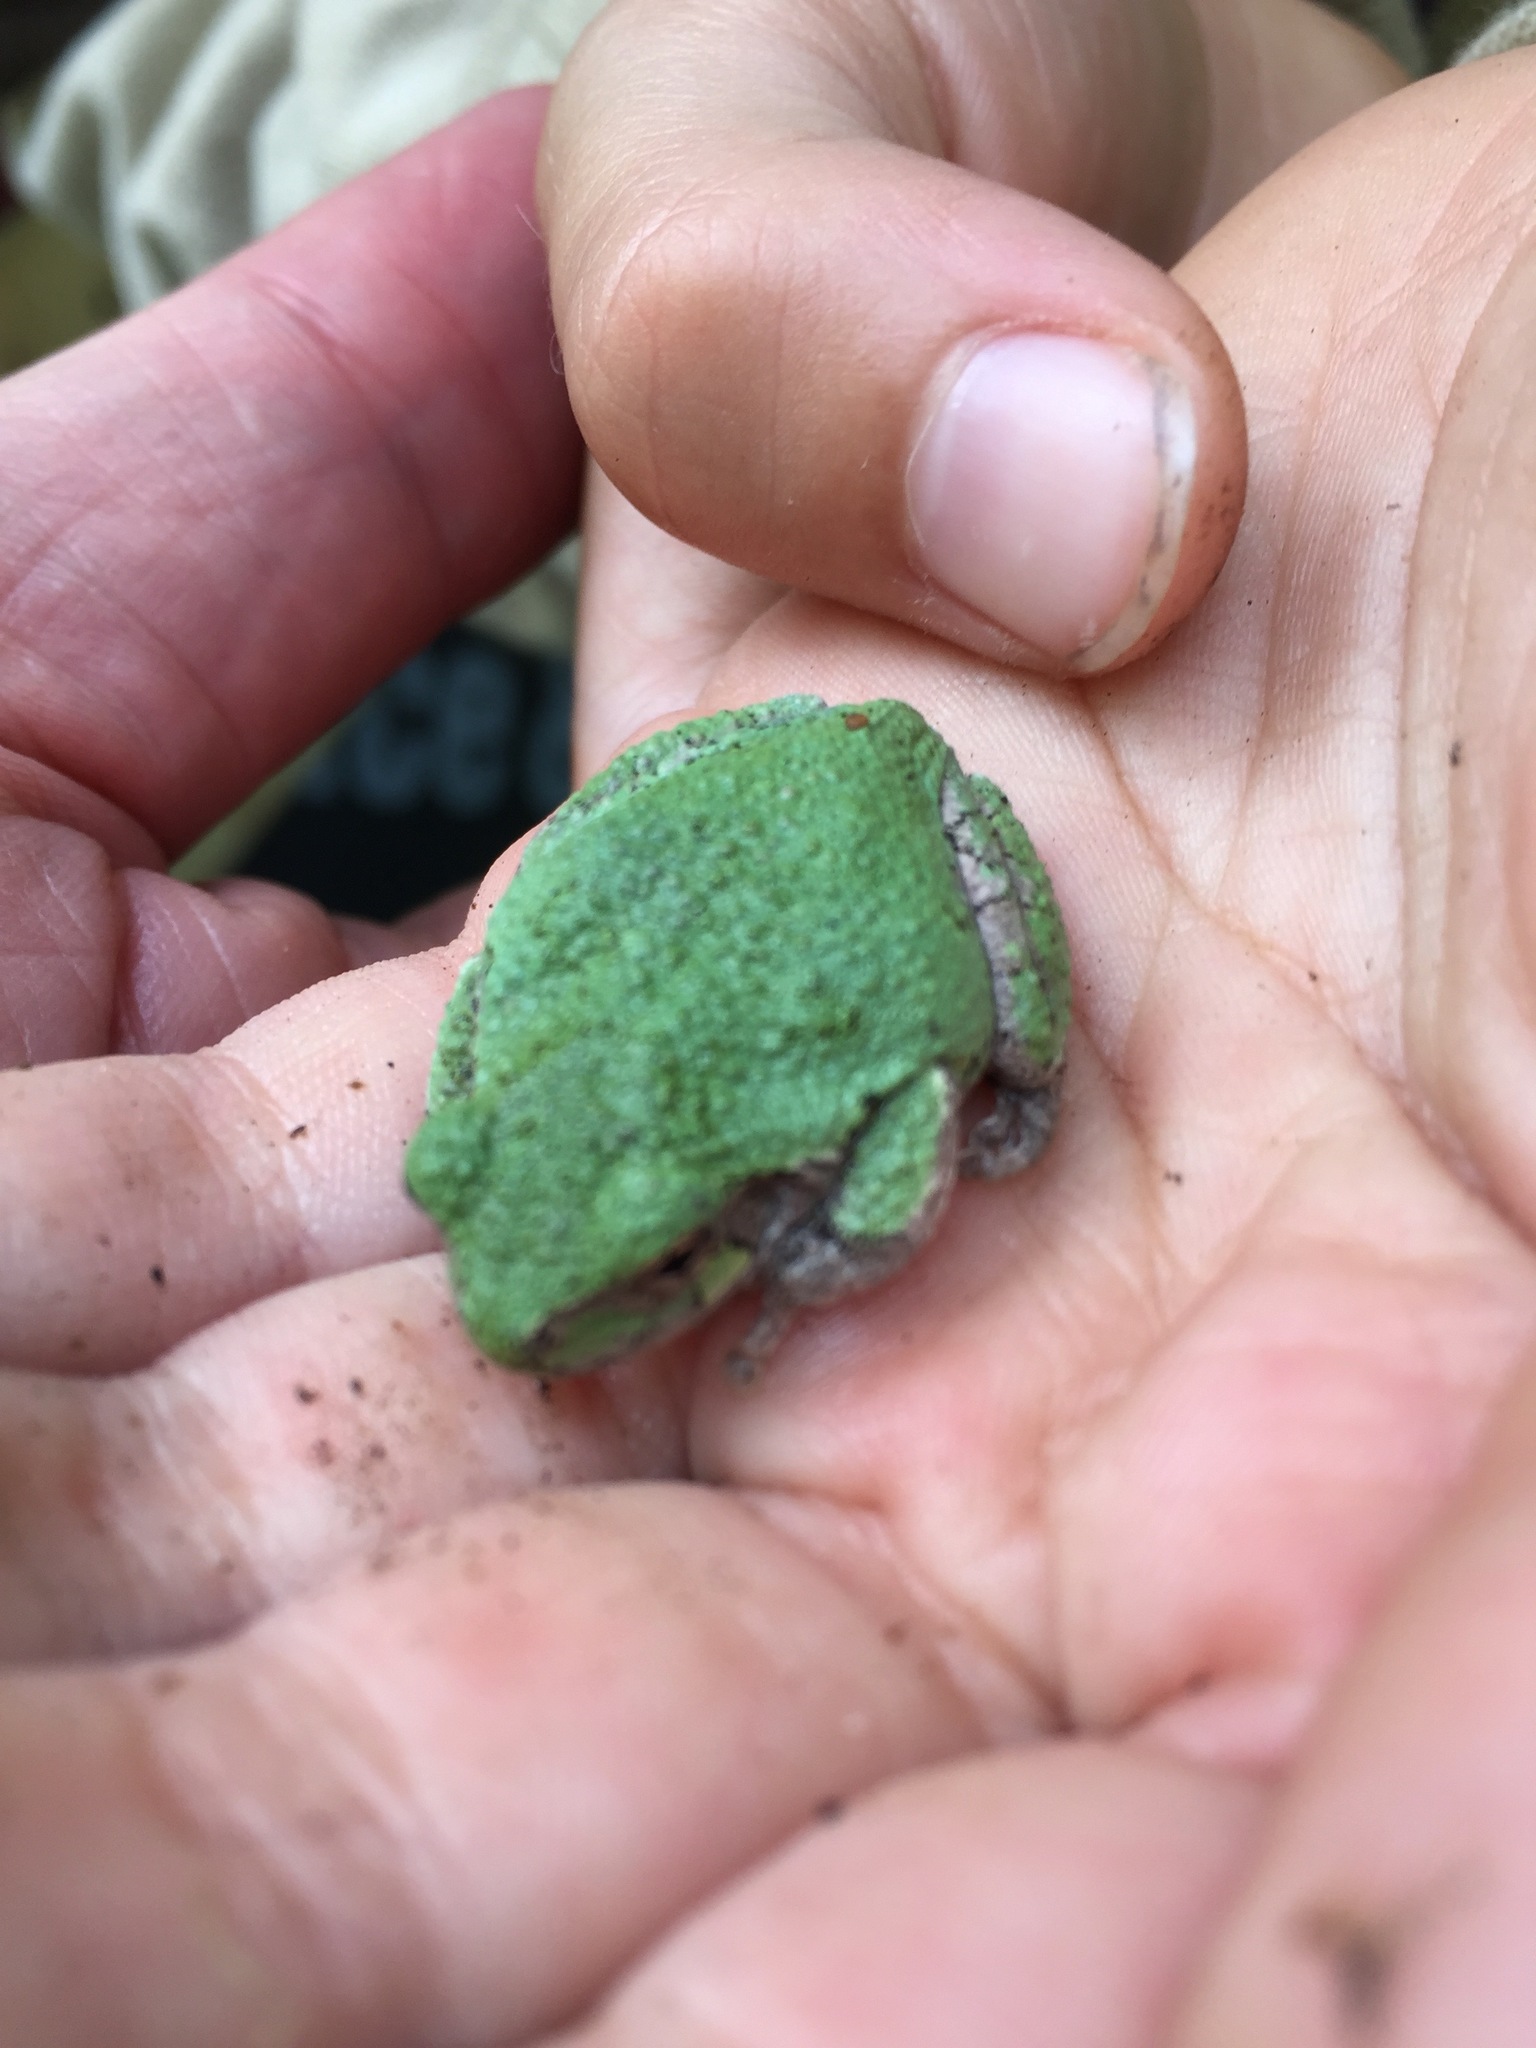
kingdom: Animalia
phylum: Chordata
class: Amphibia
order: Anura
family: Hylidae
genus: Dryophytes
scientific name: Dryophytes versicolor
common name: Gray treefrog
